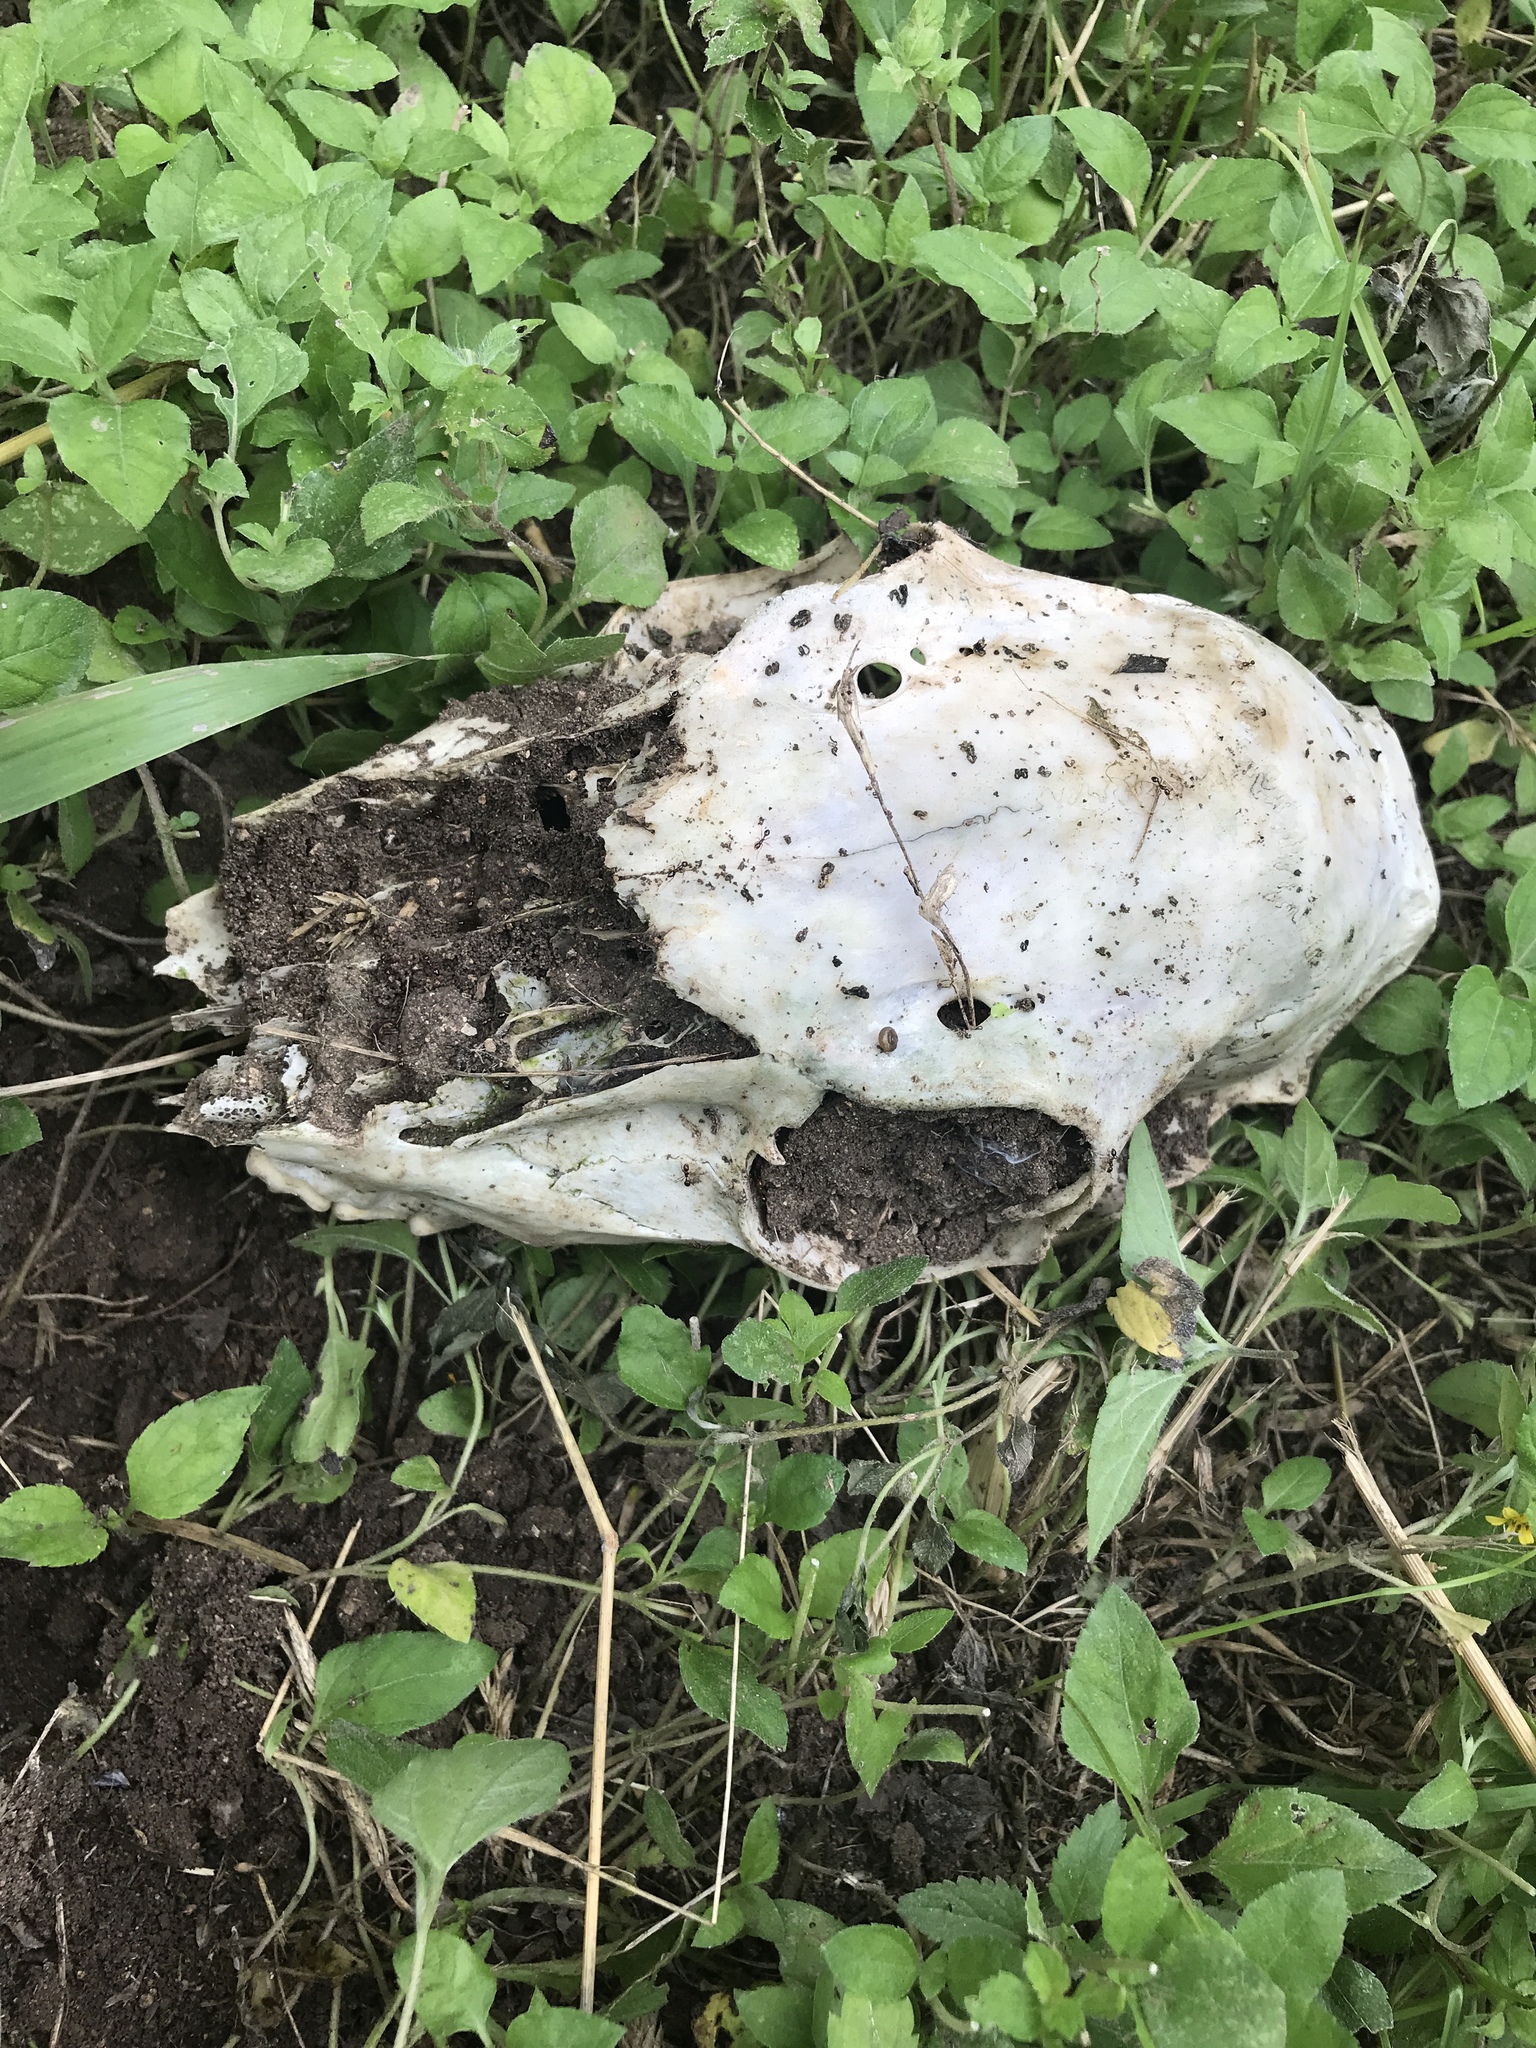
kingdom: Animalia
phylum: Chordata
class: Mammalia
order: Artiodactyla
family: Cervidae
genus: Odocoileus
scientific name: Odocoileus virginianus
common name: White-tailed deer
